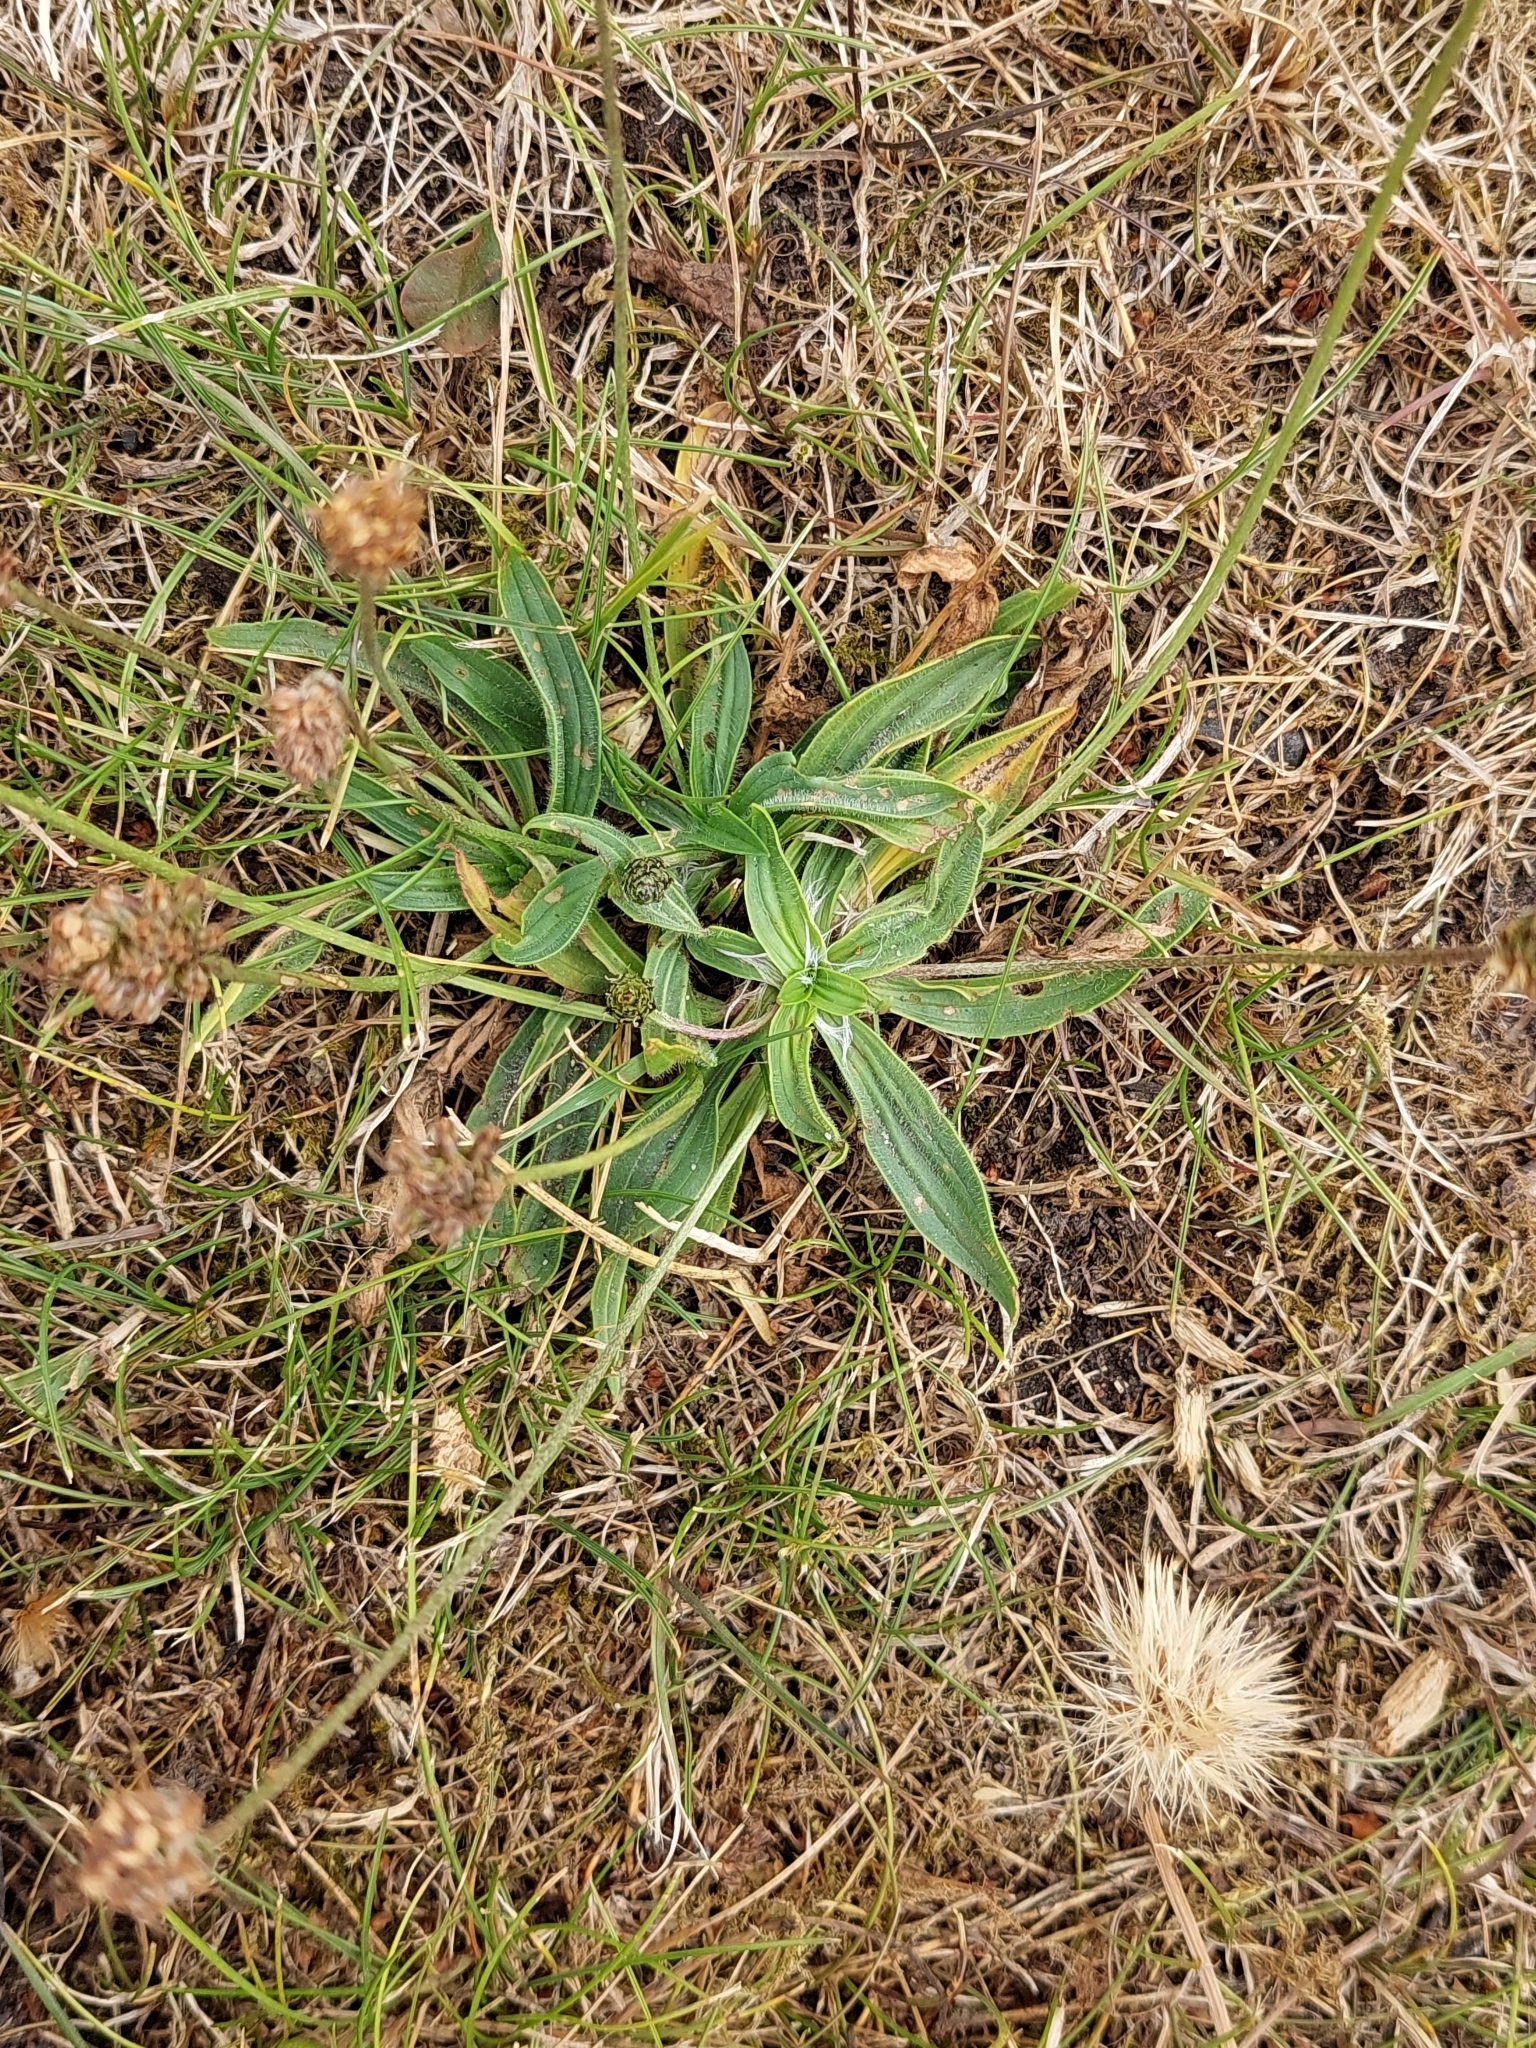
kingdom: Plantae
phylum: Tracheophyta
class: Magnoliopsida
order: Lamiales
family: Plantaginaceae
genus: Plantago
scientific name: Plantago lanceolata
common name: Ribwort plantain
